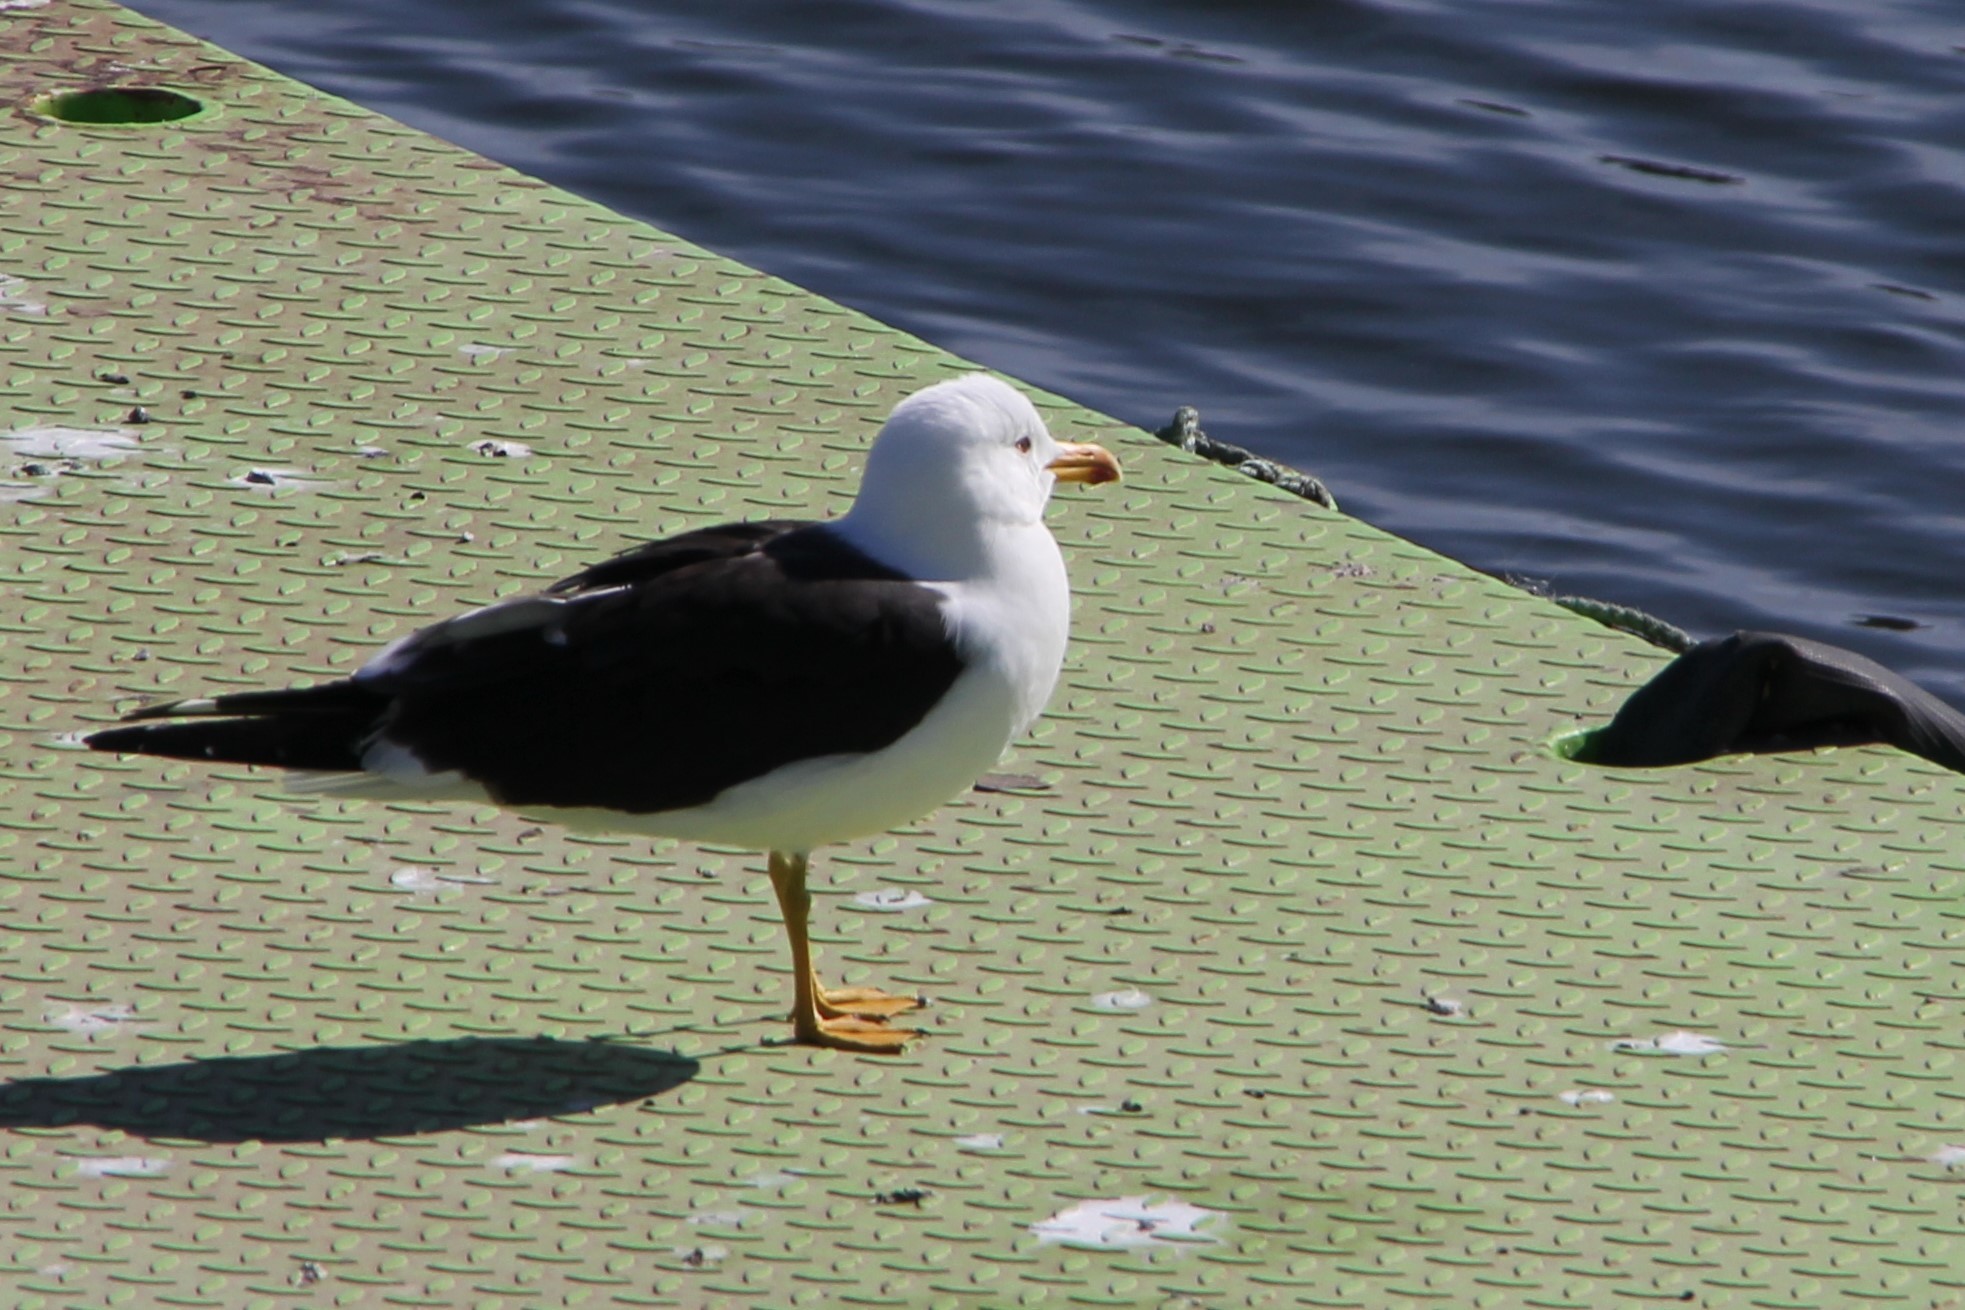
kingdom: Animalia
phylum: Chordata
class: Aves
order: Charadriiformes
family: Laridae
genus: Larus
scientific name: Larus fuscus
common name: Lesser black-backed gull
